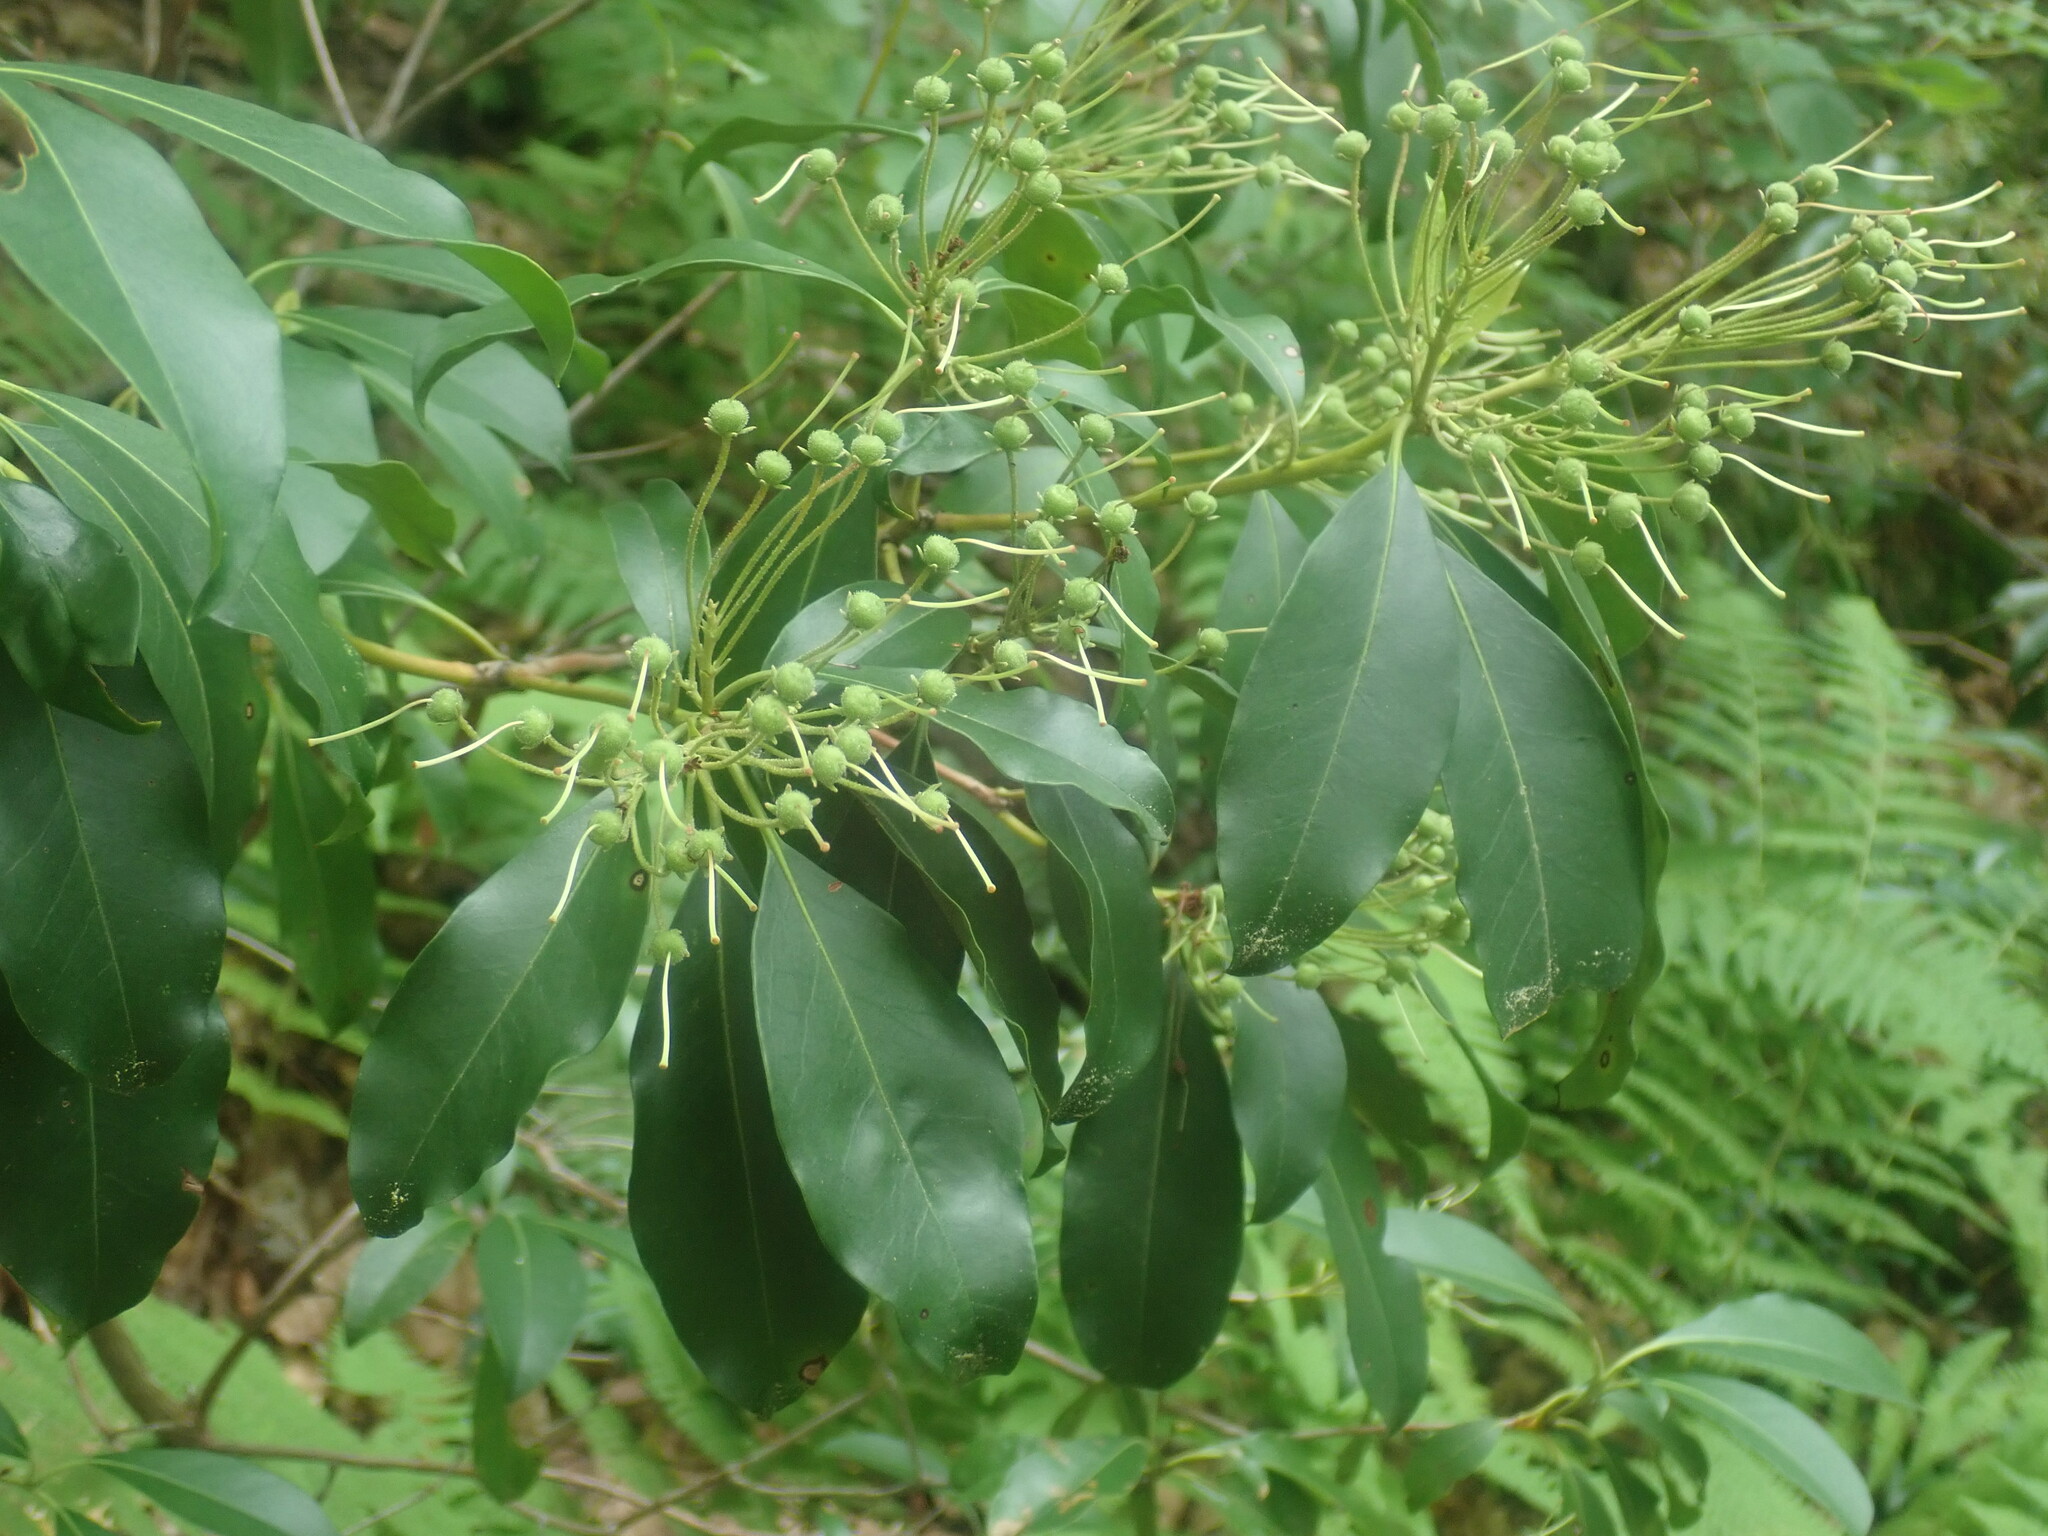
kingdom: Plantae
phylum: Tracheophyta
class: Magnoliopsida
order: Ericales
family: Ericaceae
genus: Kalmia
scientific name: Kalmia latifolia
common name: Mountain-laurel
